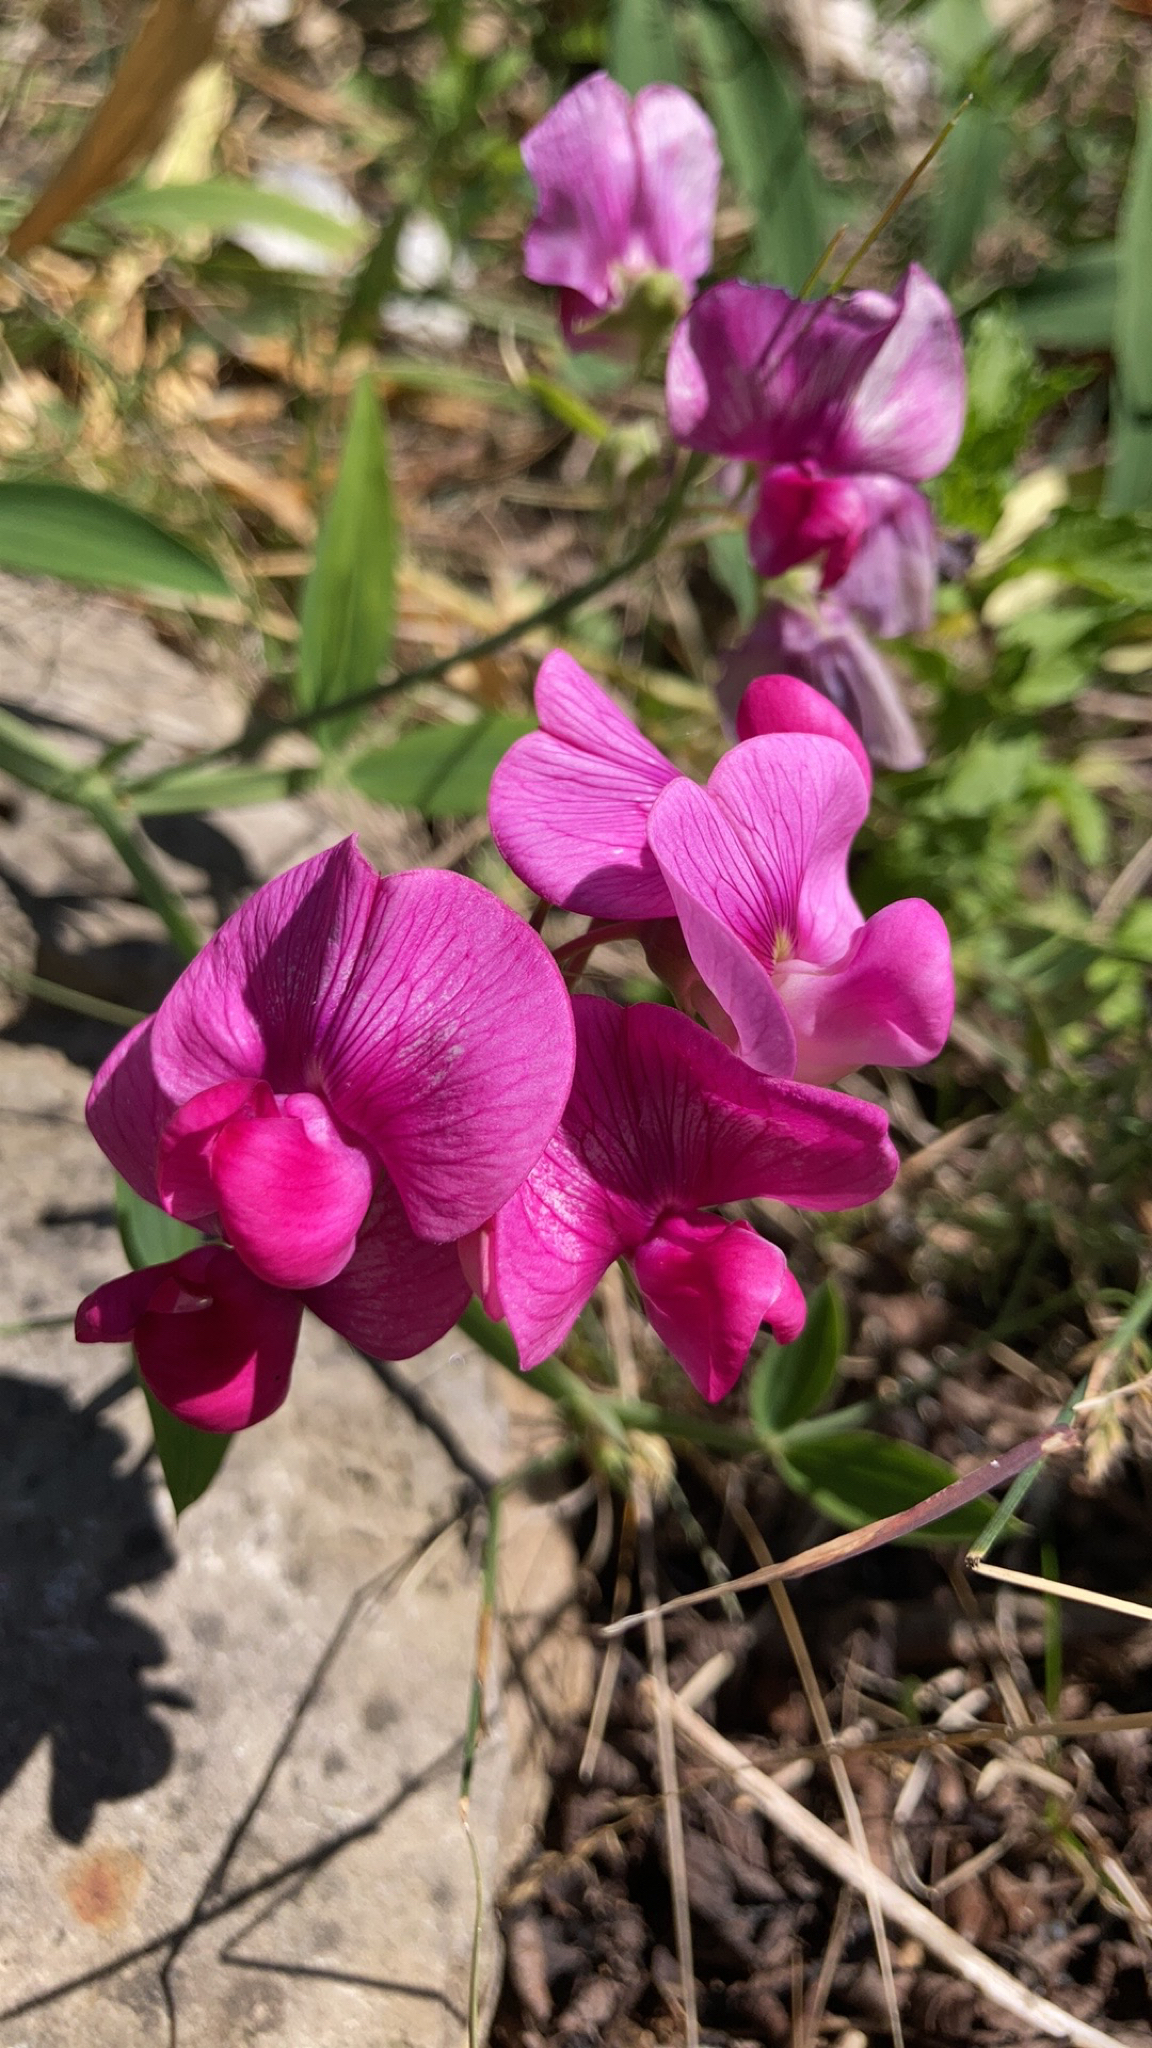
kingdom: Plantae
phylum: Tracheophyta
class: Magnoliopsida
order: Fabales
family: Fabaceae
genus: Lathyrus
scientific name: Lathyrus latifolius
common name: Perennial pea
